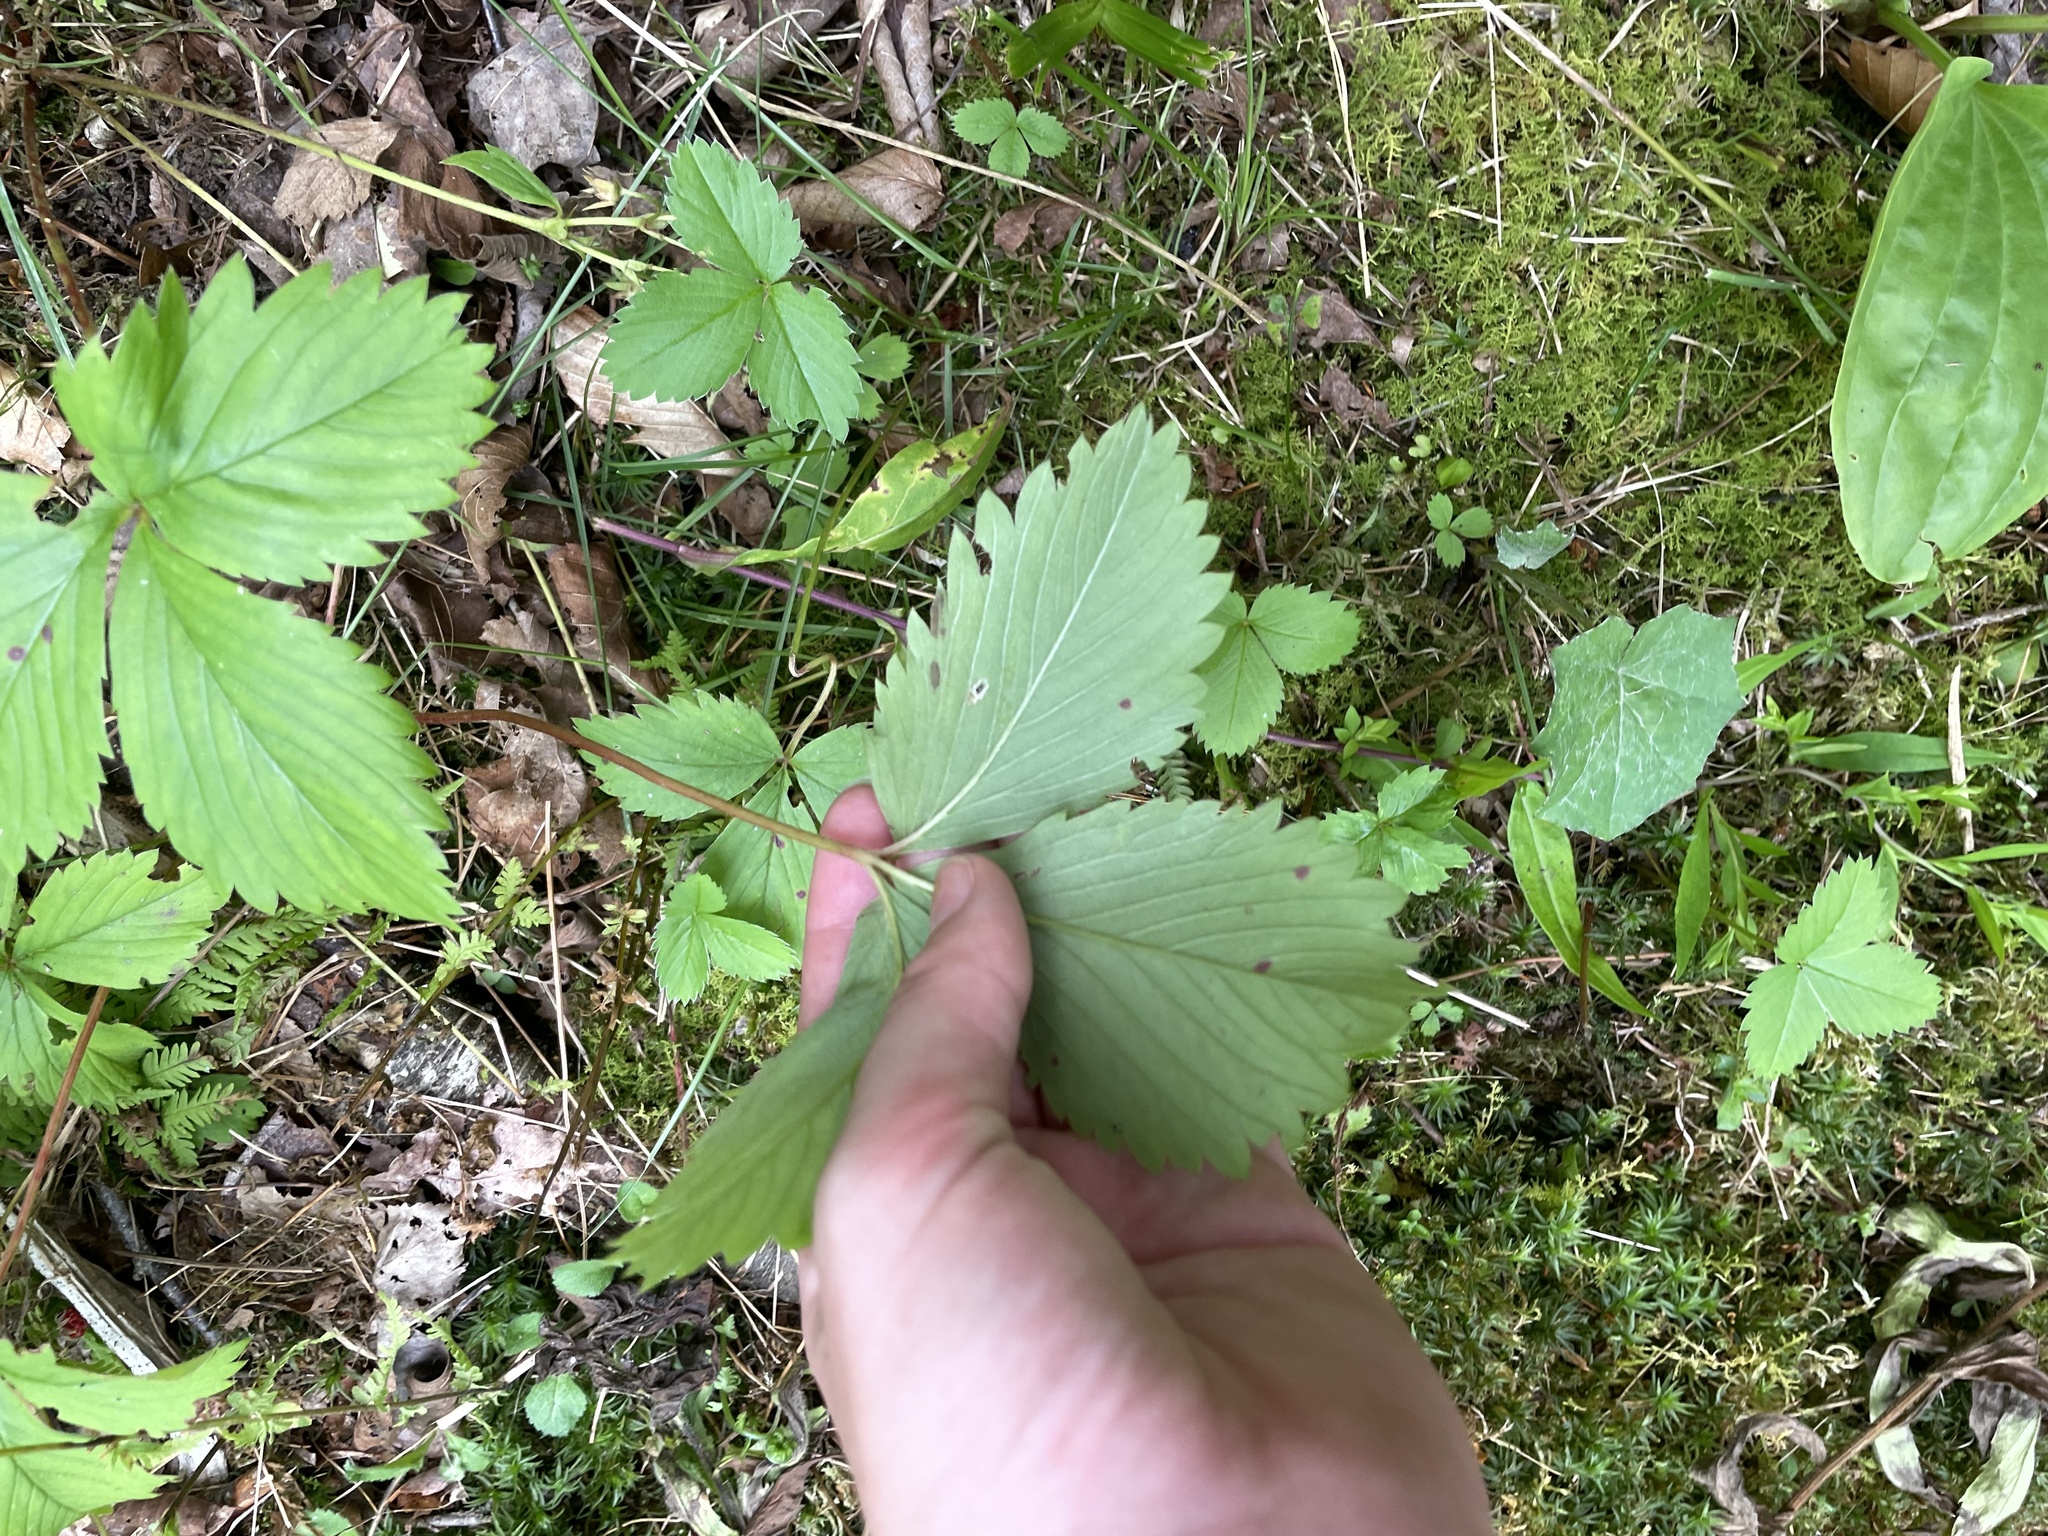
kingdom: Plantae
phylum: Tracheophyta
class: Magnoliopsida
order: Rosales
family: Rosaceae
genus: Fragaria
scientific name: Fragaria virginiana
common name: Thickleaved wild strawberry
